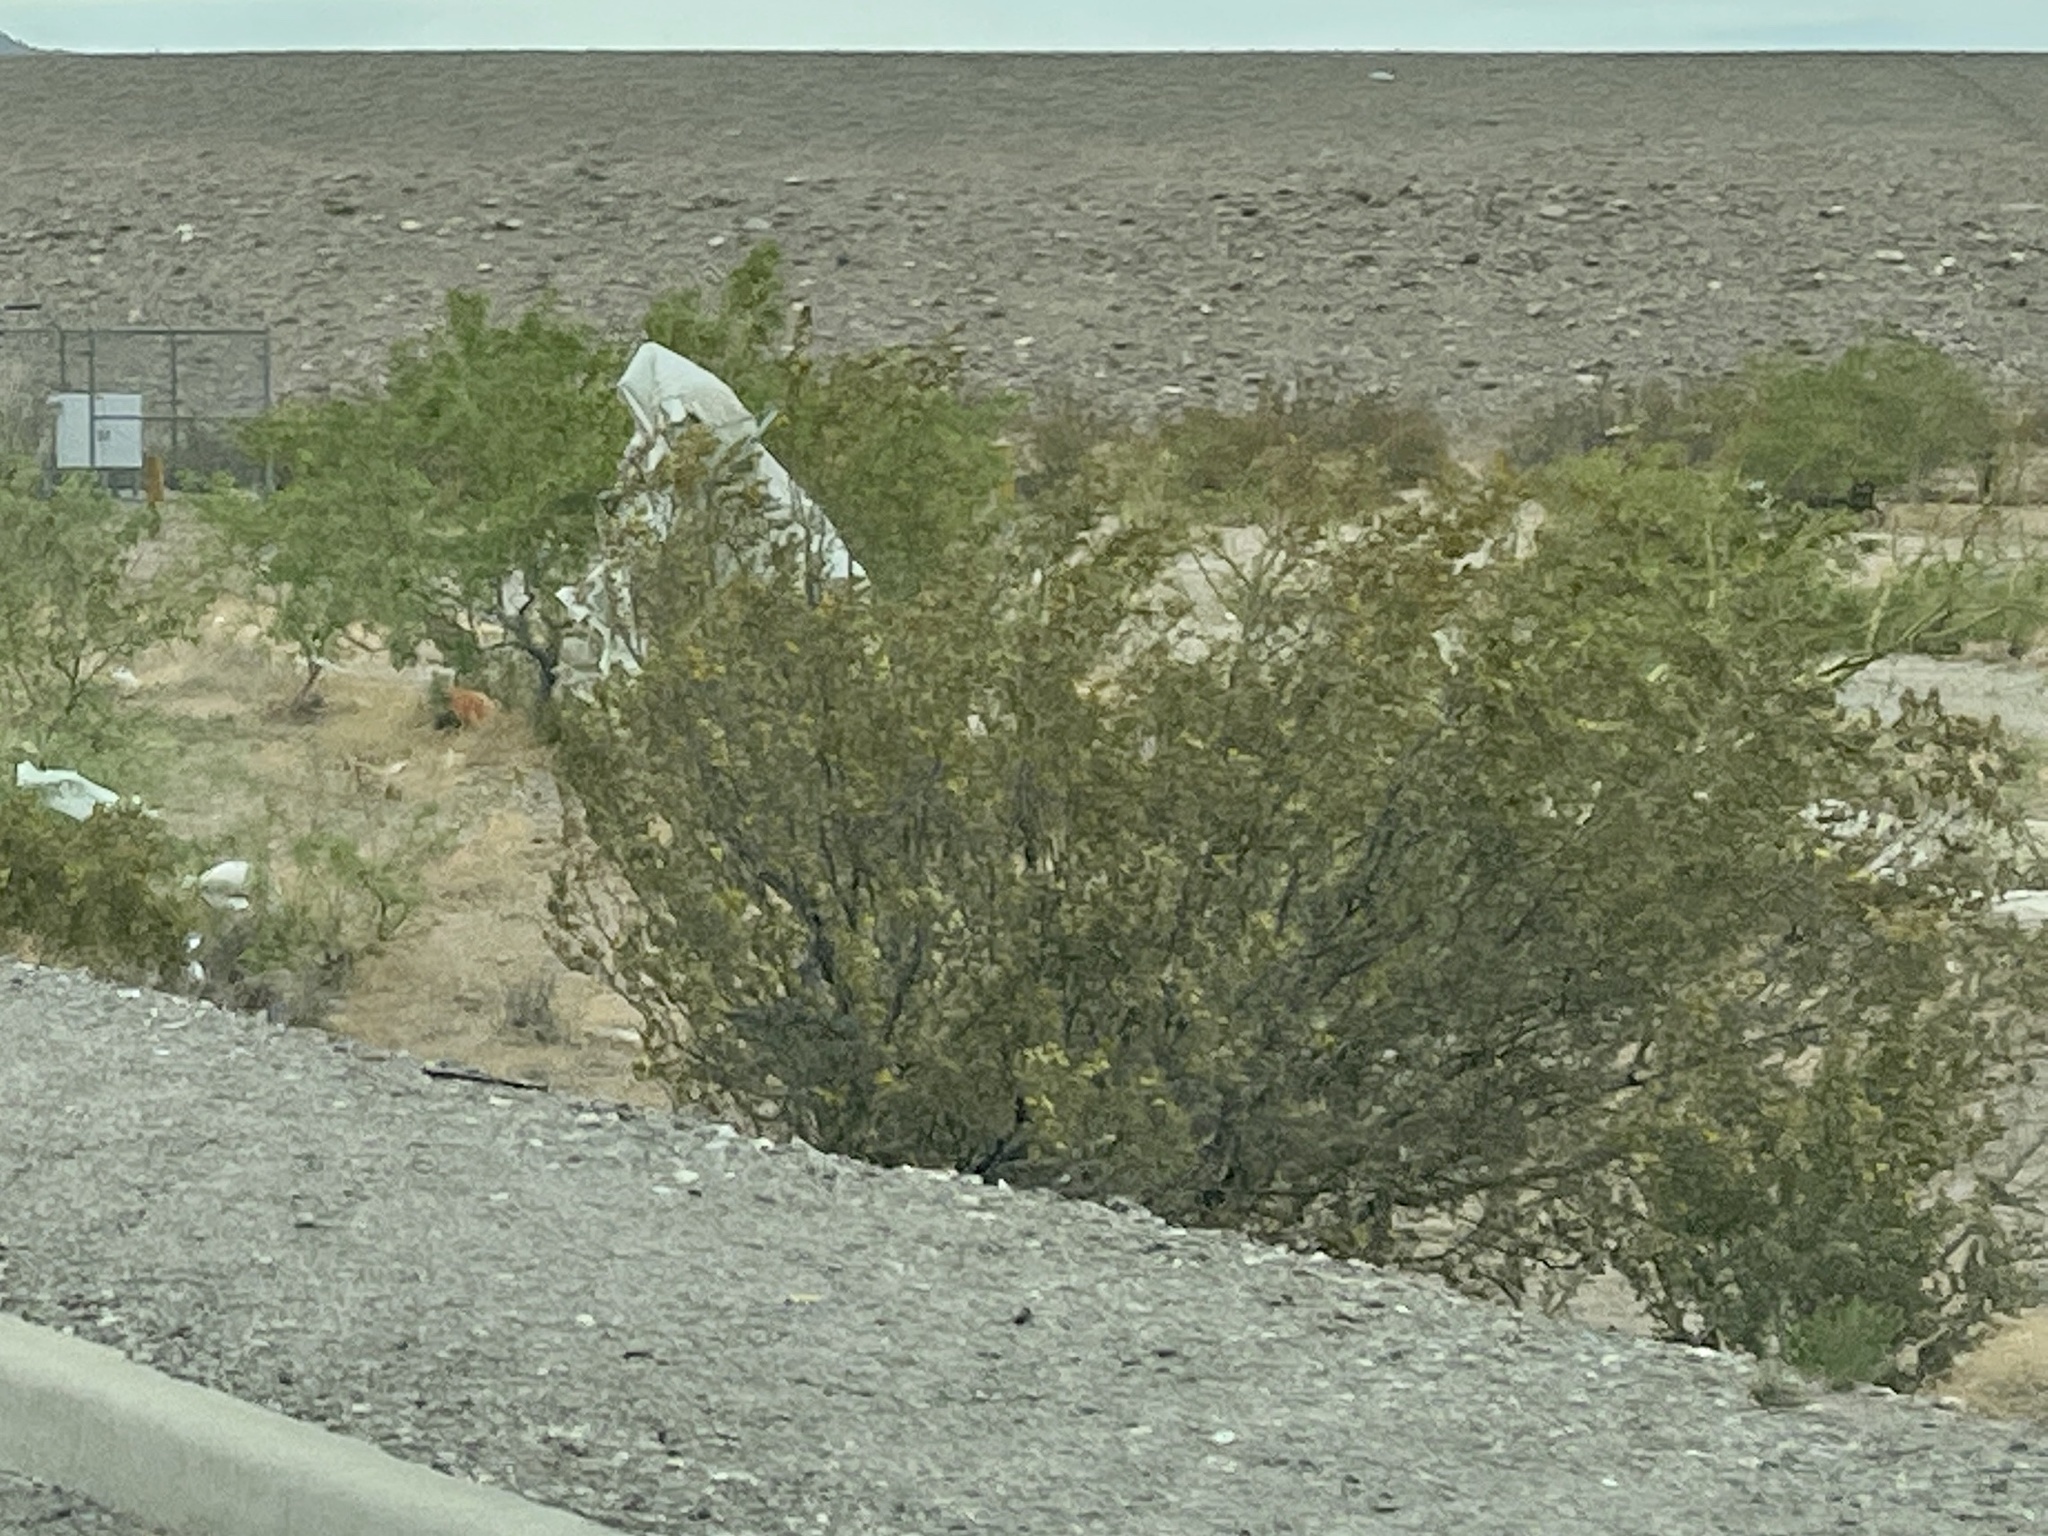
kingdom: Plantae
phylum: Tracheophyta
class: Magnoliopsida
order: Zygophyllales
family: Zygophyllaceae
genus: Larrea
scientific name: Larrea tridentata
